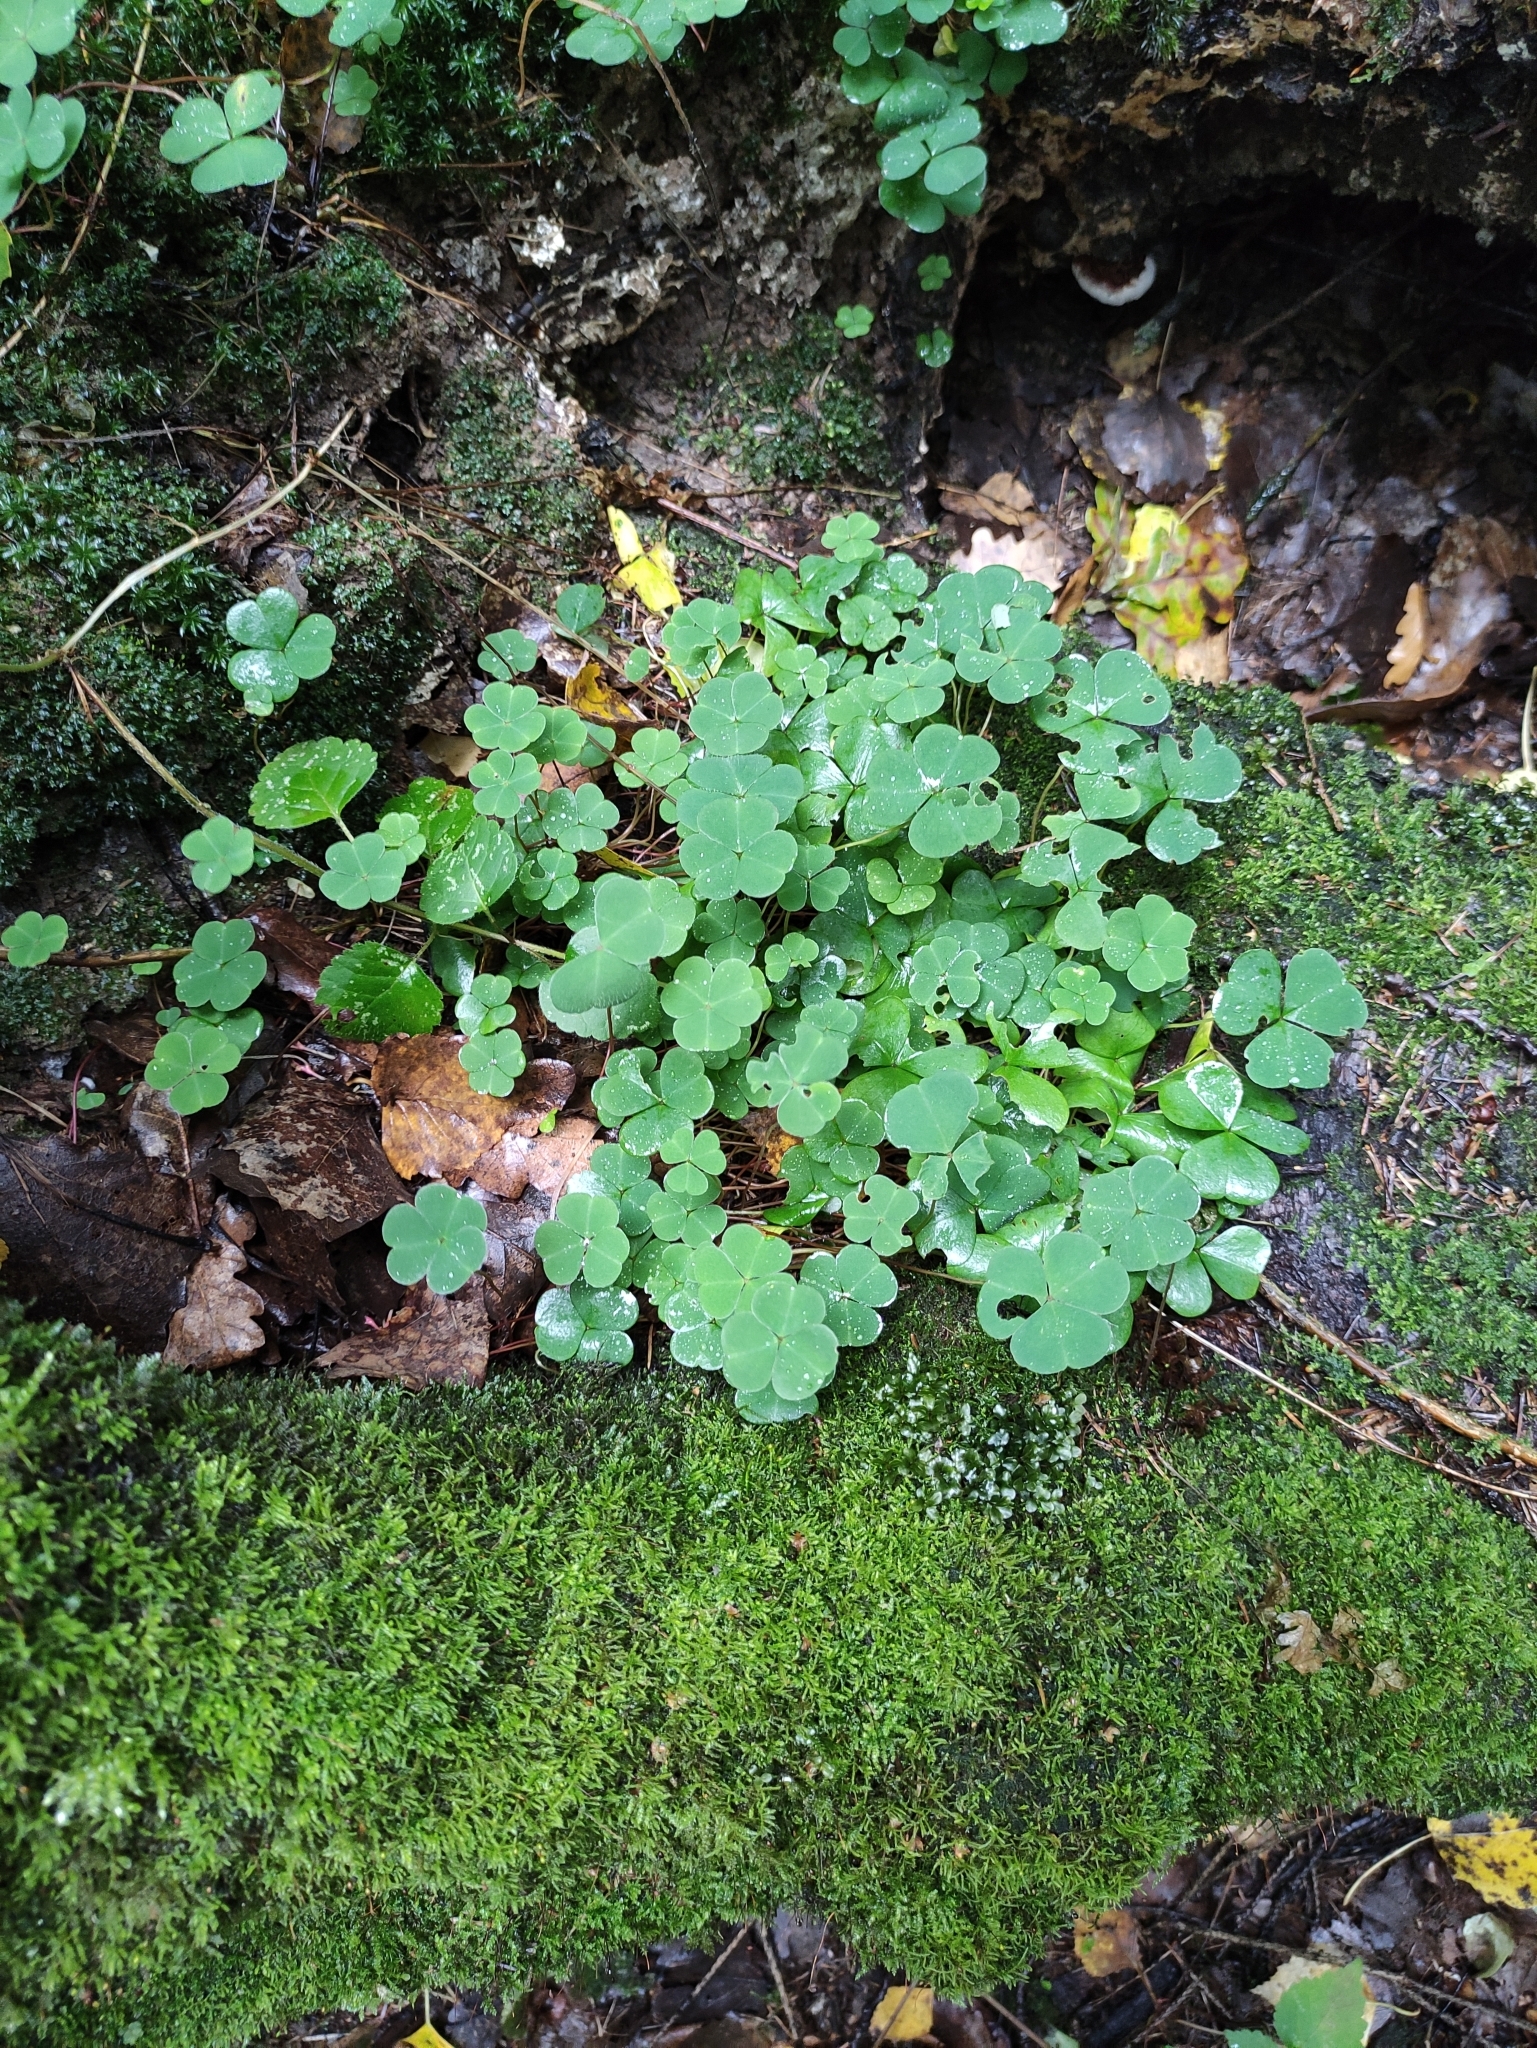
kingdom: Plantae
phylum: Tracheophyta
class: Magnoliopsida
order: Oxalidales
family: Oxalidaceae
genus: Oxalis
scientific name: Oxalis acetosella
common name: Wood-sorrel
